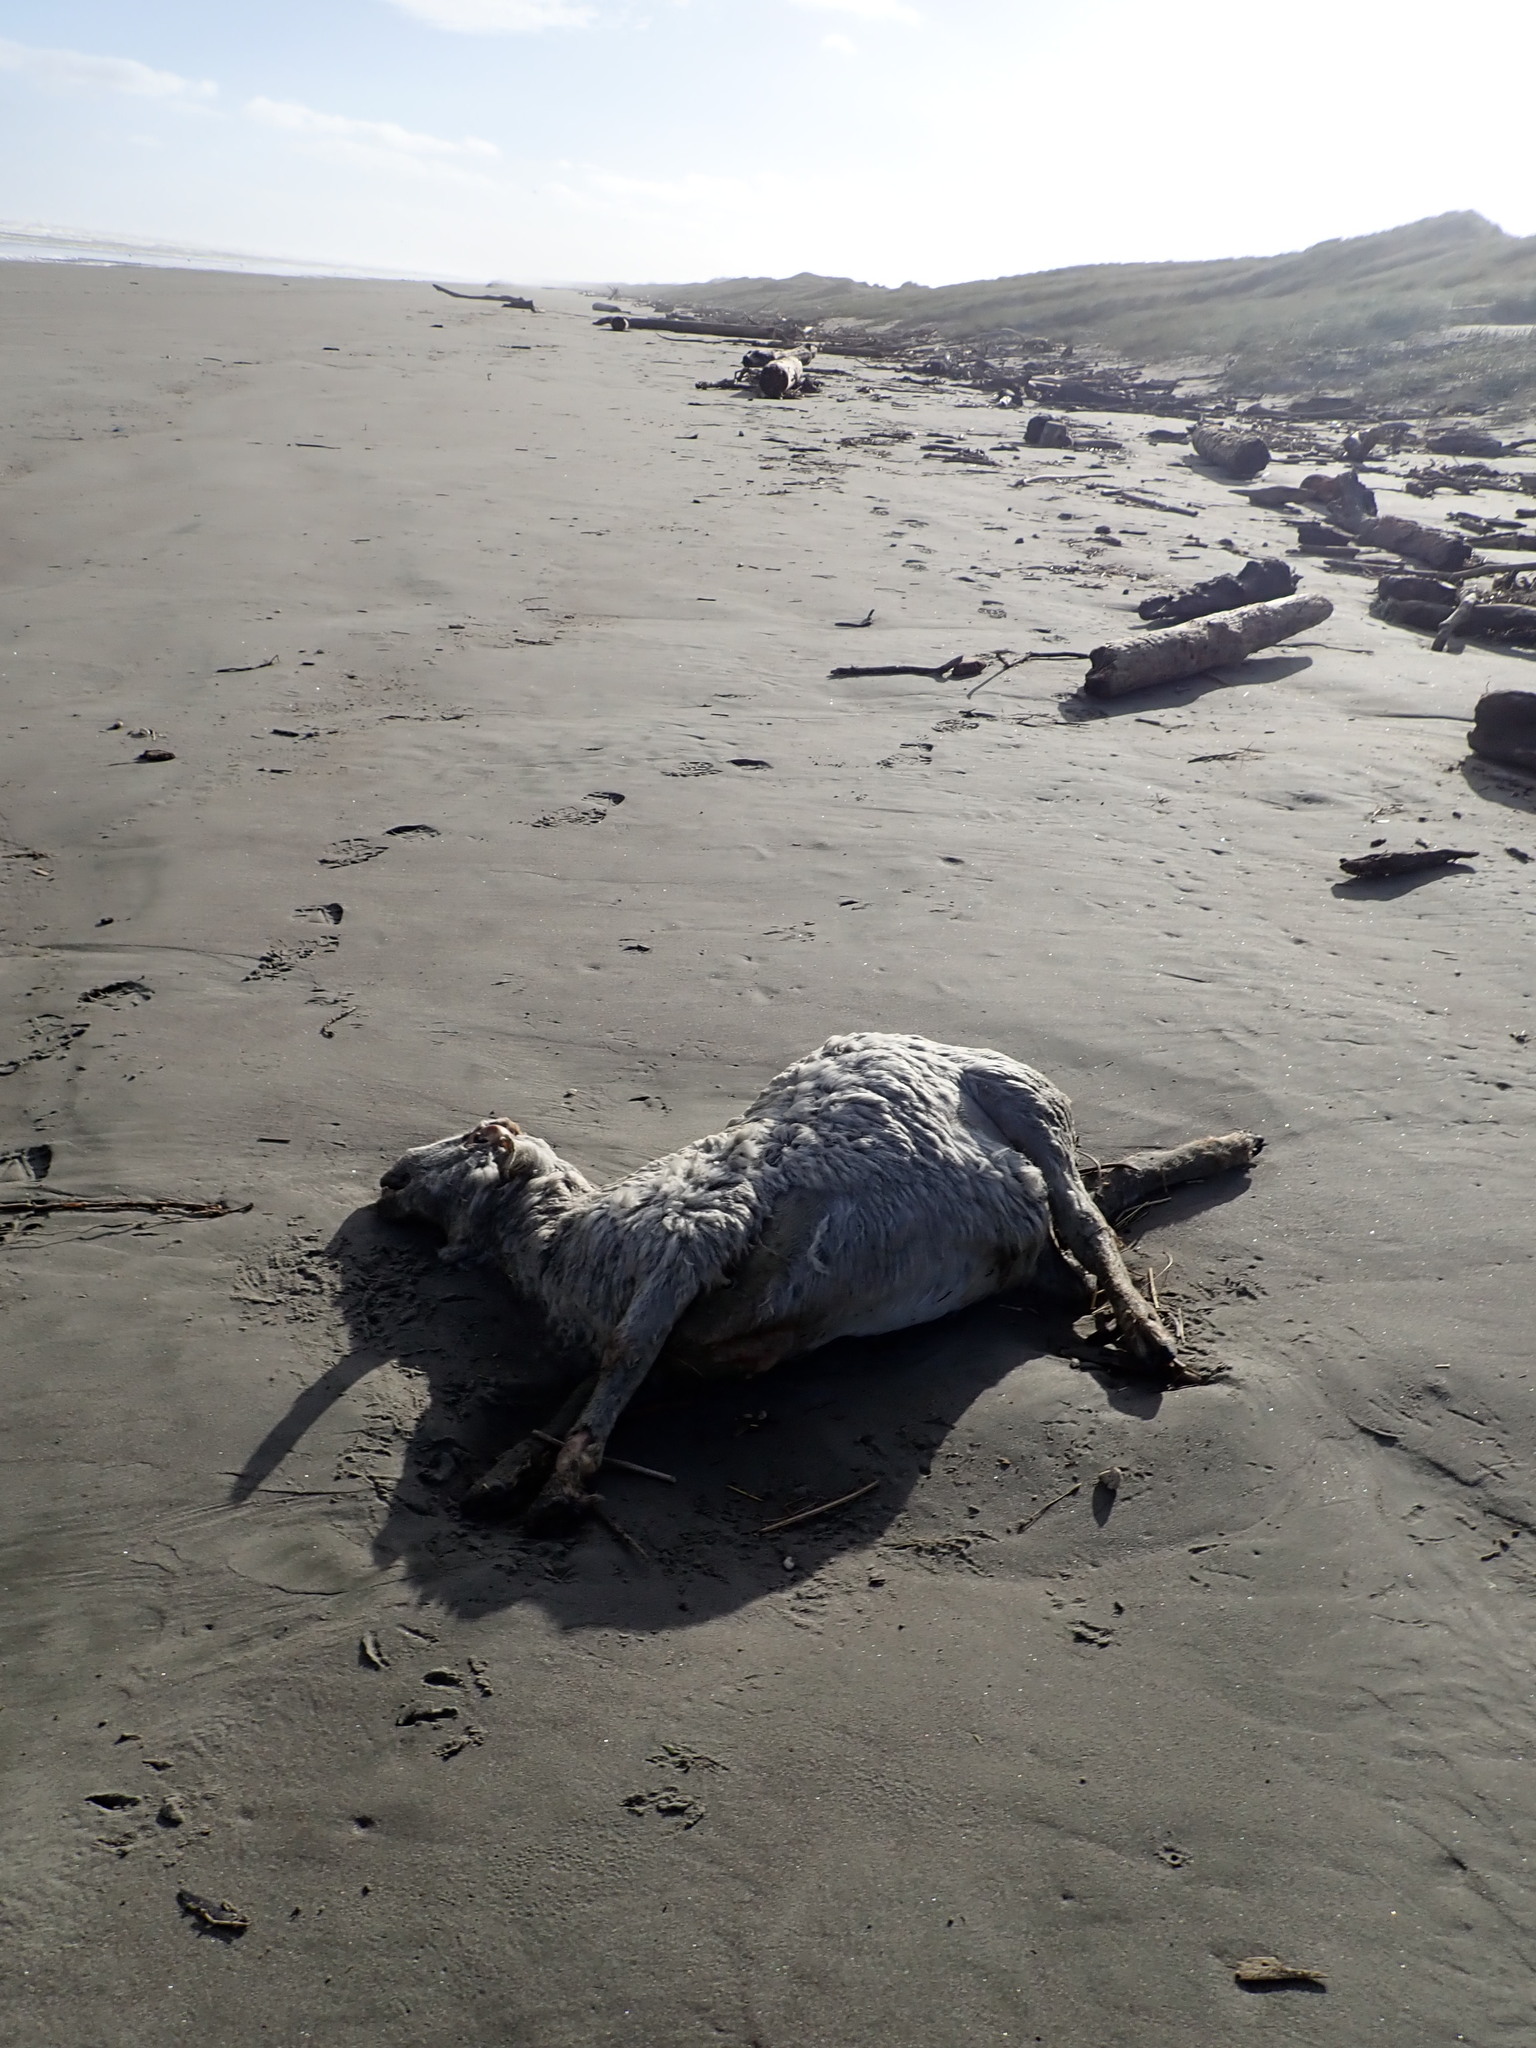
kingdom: Animalia
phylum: Chordata
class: Mammalia
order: Artiodactyla
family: Bovidae
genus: Ovis
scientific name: Ovis aries
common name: Domestic sheep
